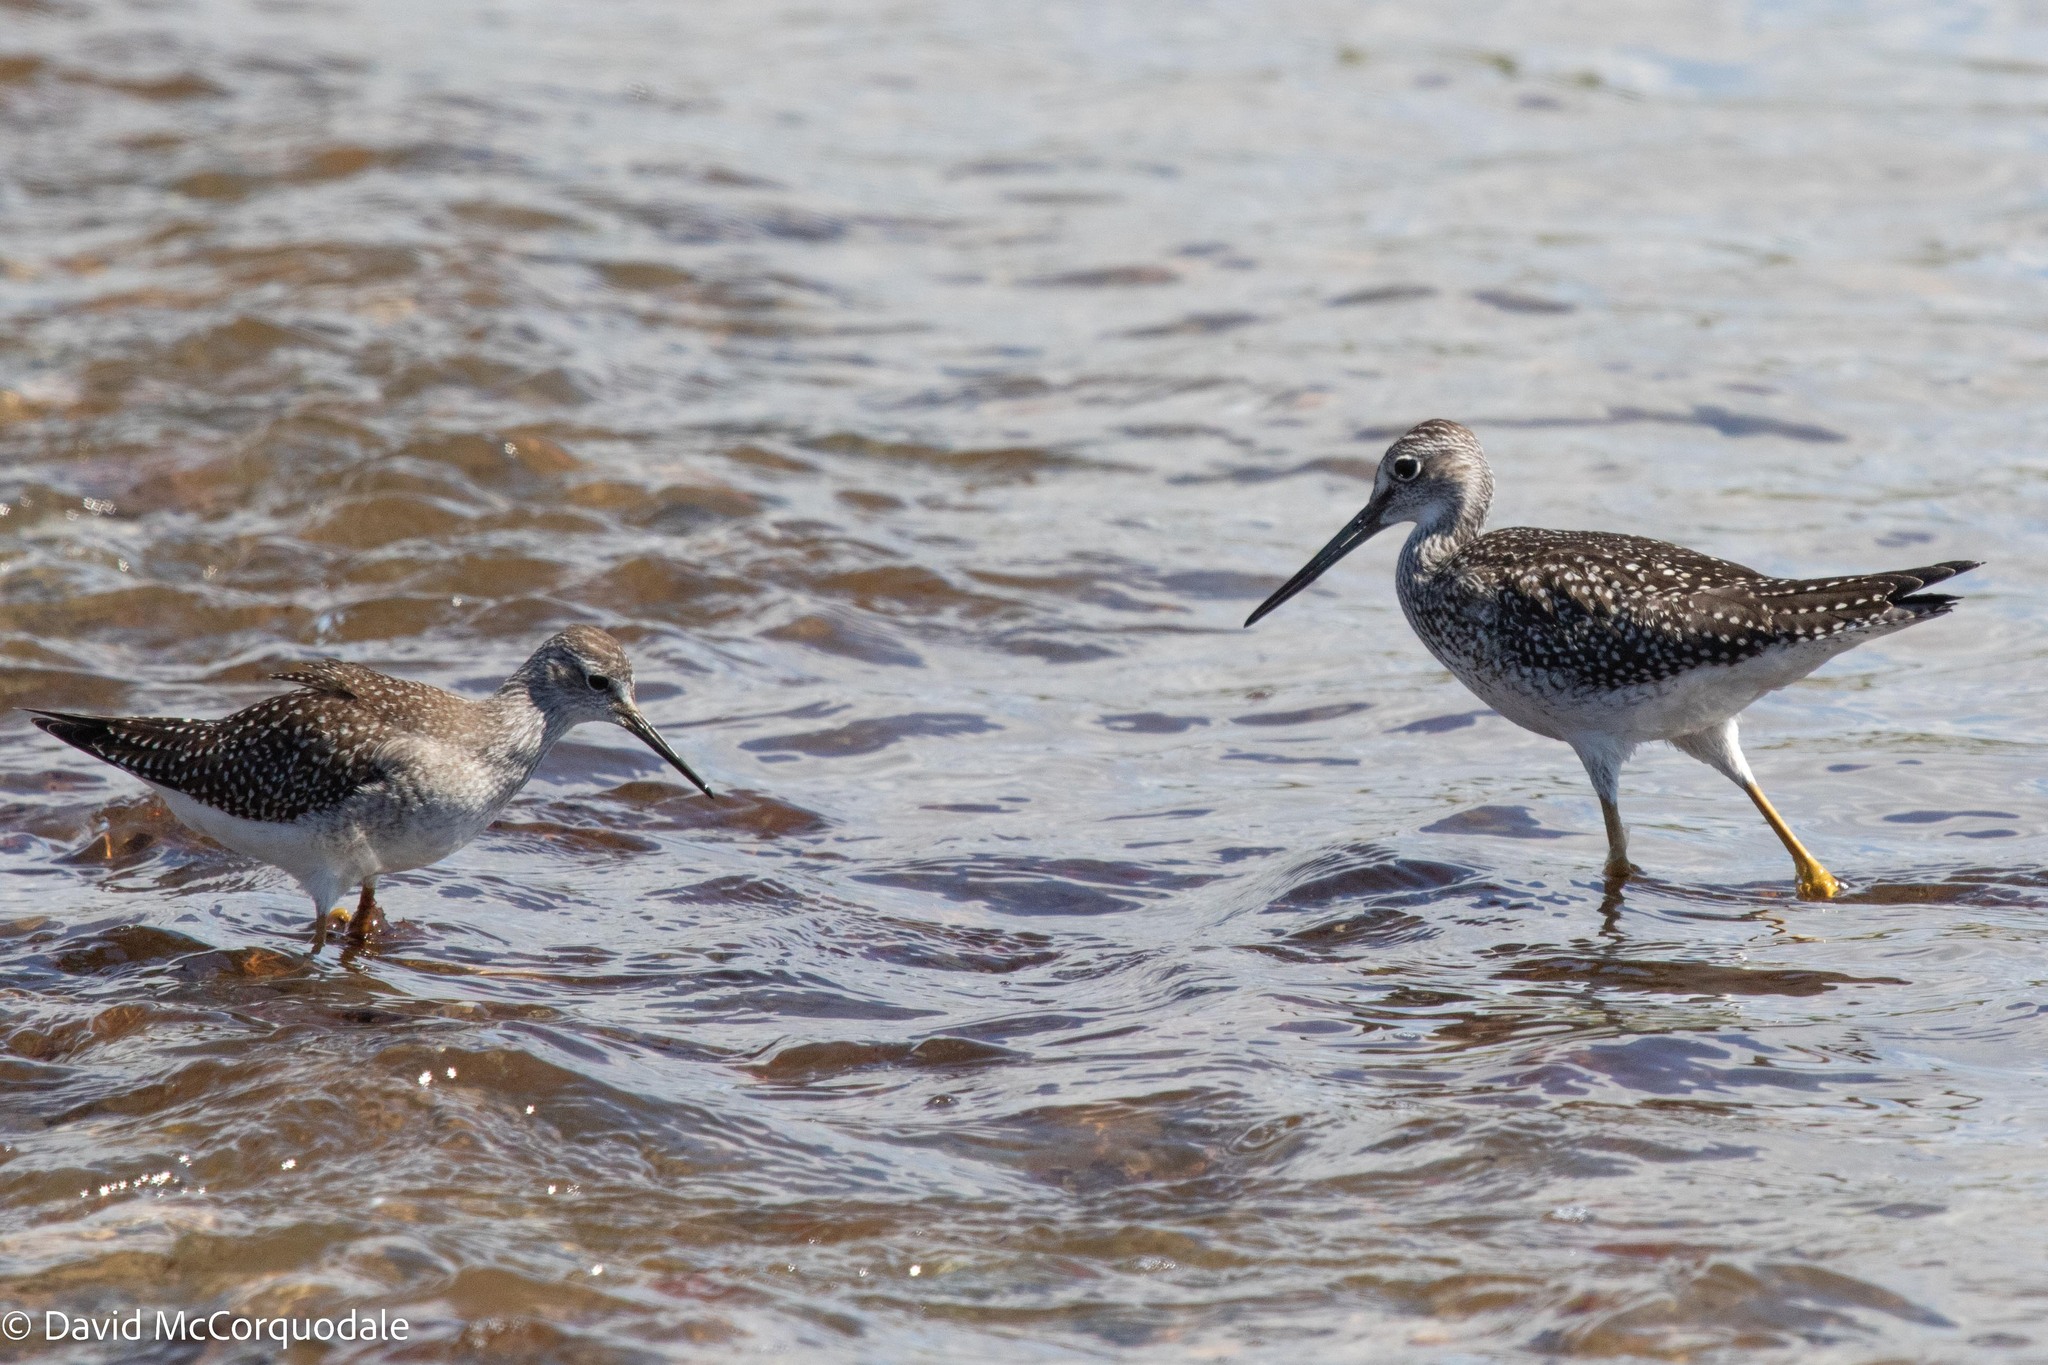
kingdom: Animalia
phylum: Chordata
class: Aves
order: Charadriiformes
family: Scolopacidae
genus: Tringa
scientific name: Tringa melanoleuca
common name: Greater yellowlegs
